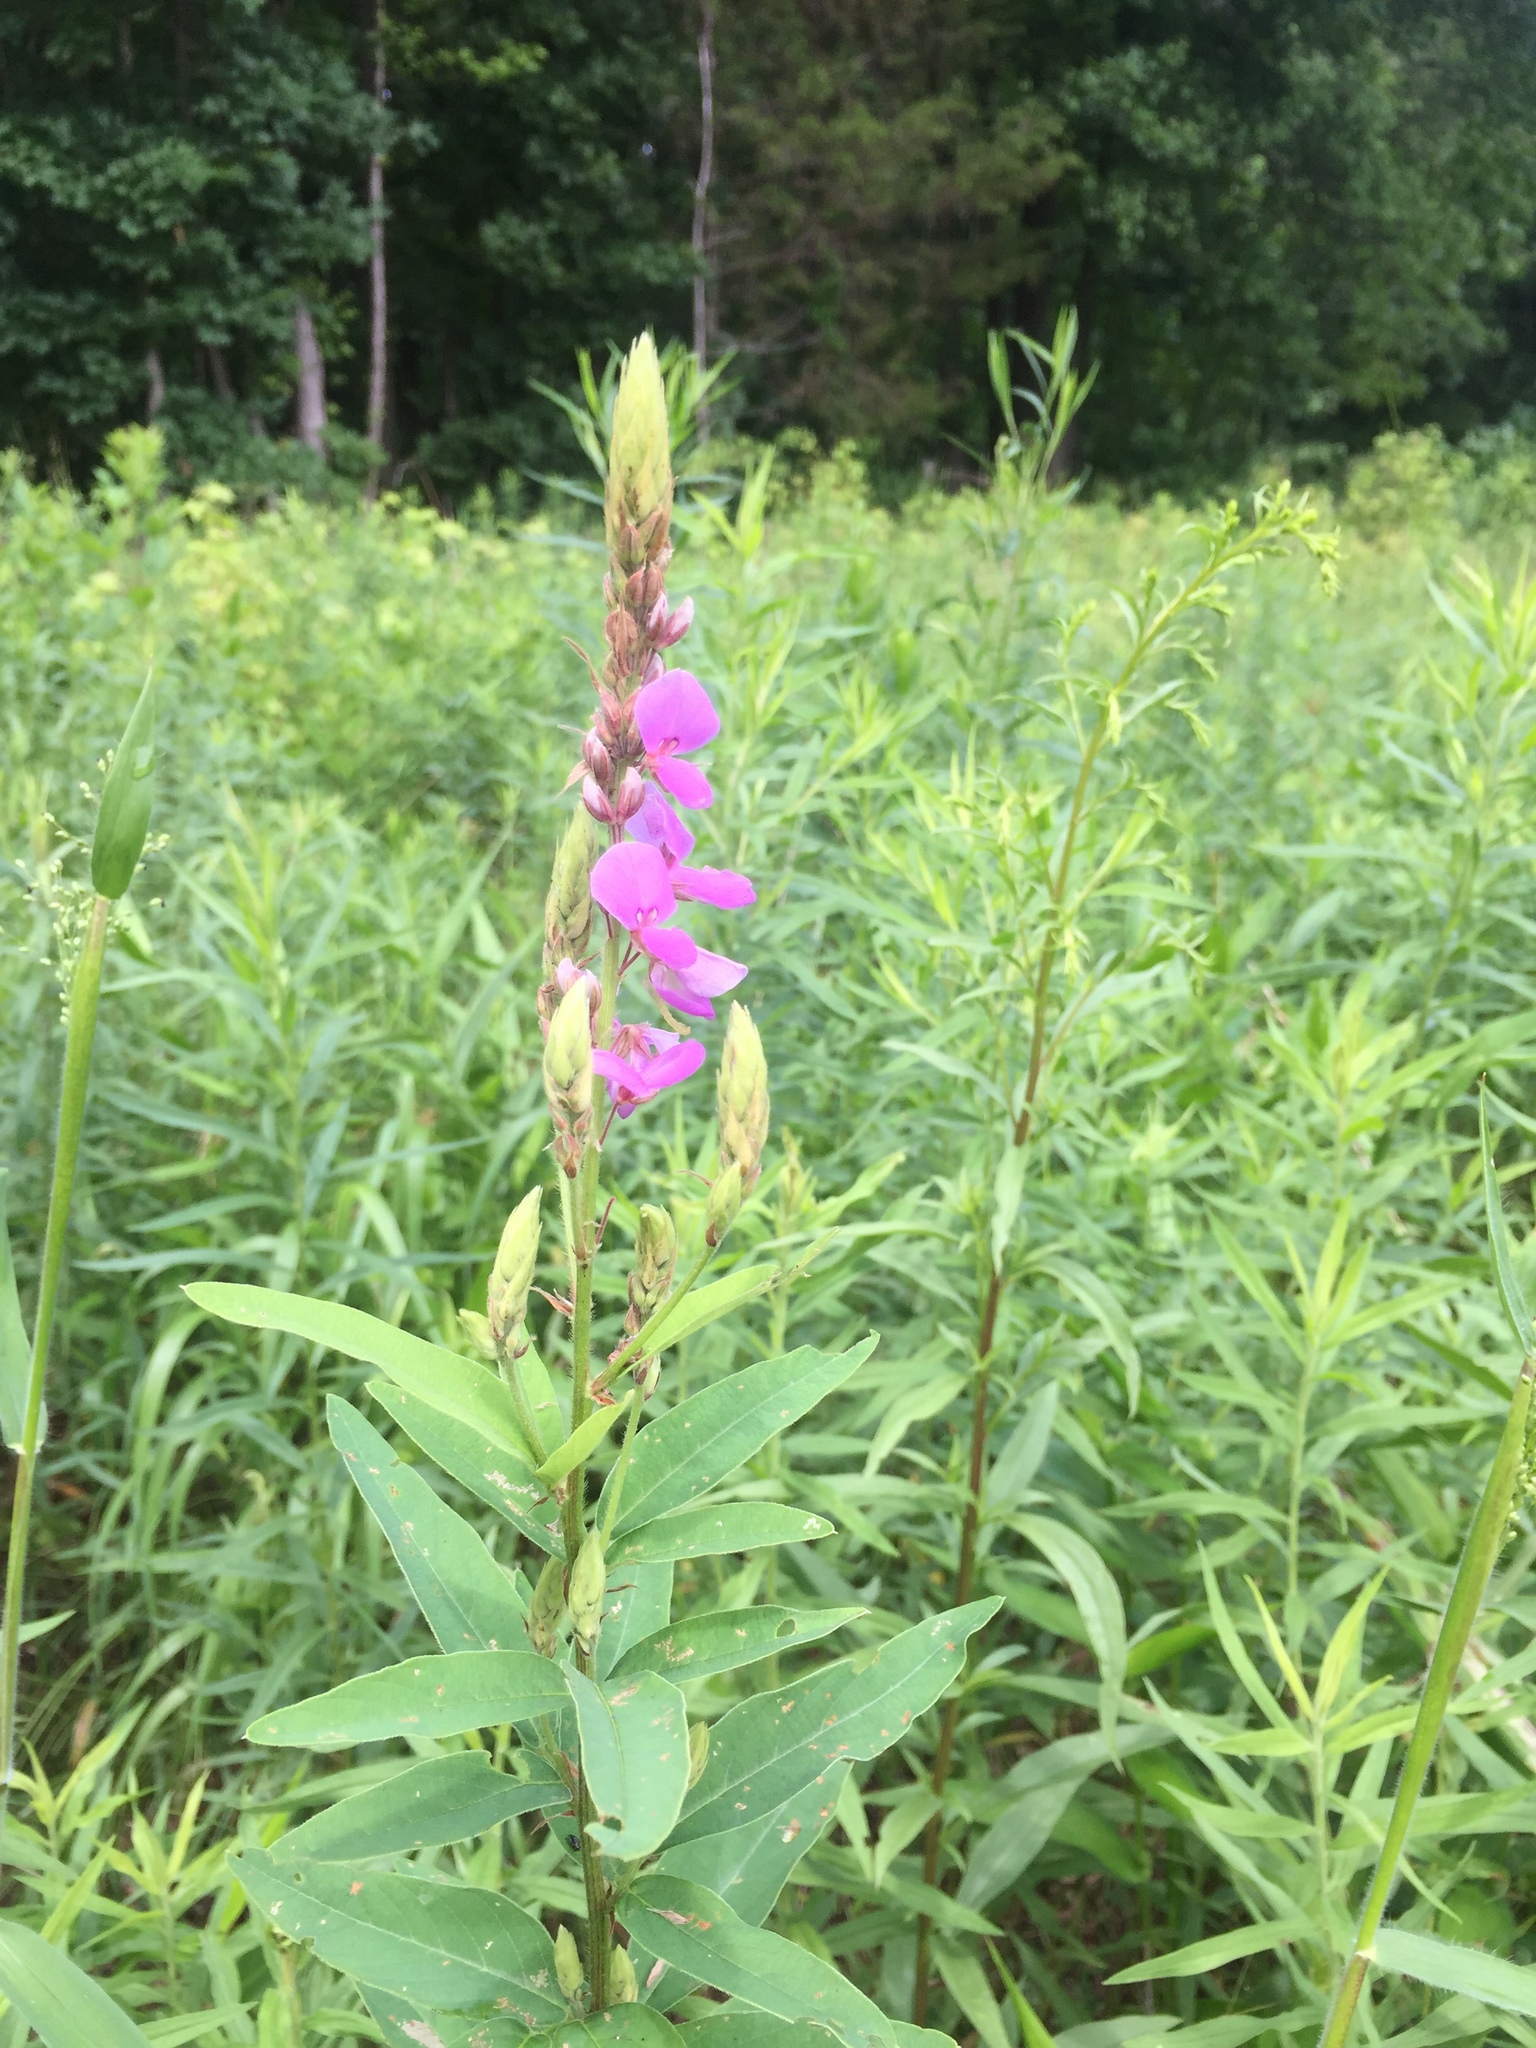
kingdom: Plantae
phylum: Tracheophyta
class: Magnoliopsida
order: Fabales
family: Fabaceae
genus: Desmodium
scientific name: Desmodium canadense
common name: Canada tick-trefoil
